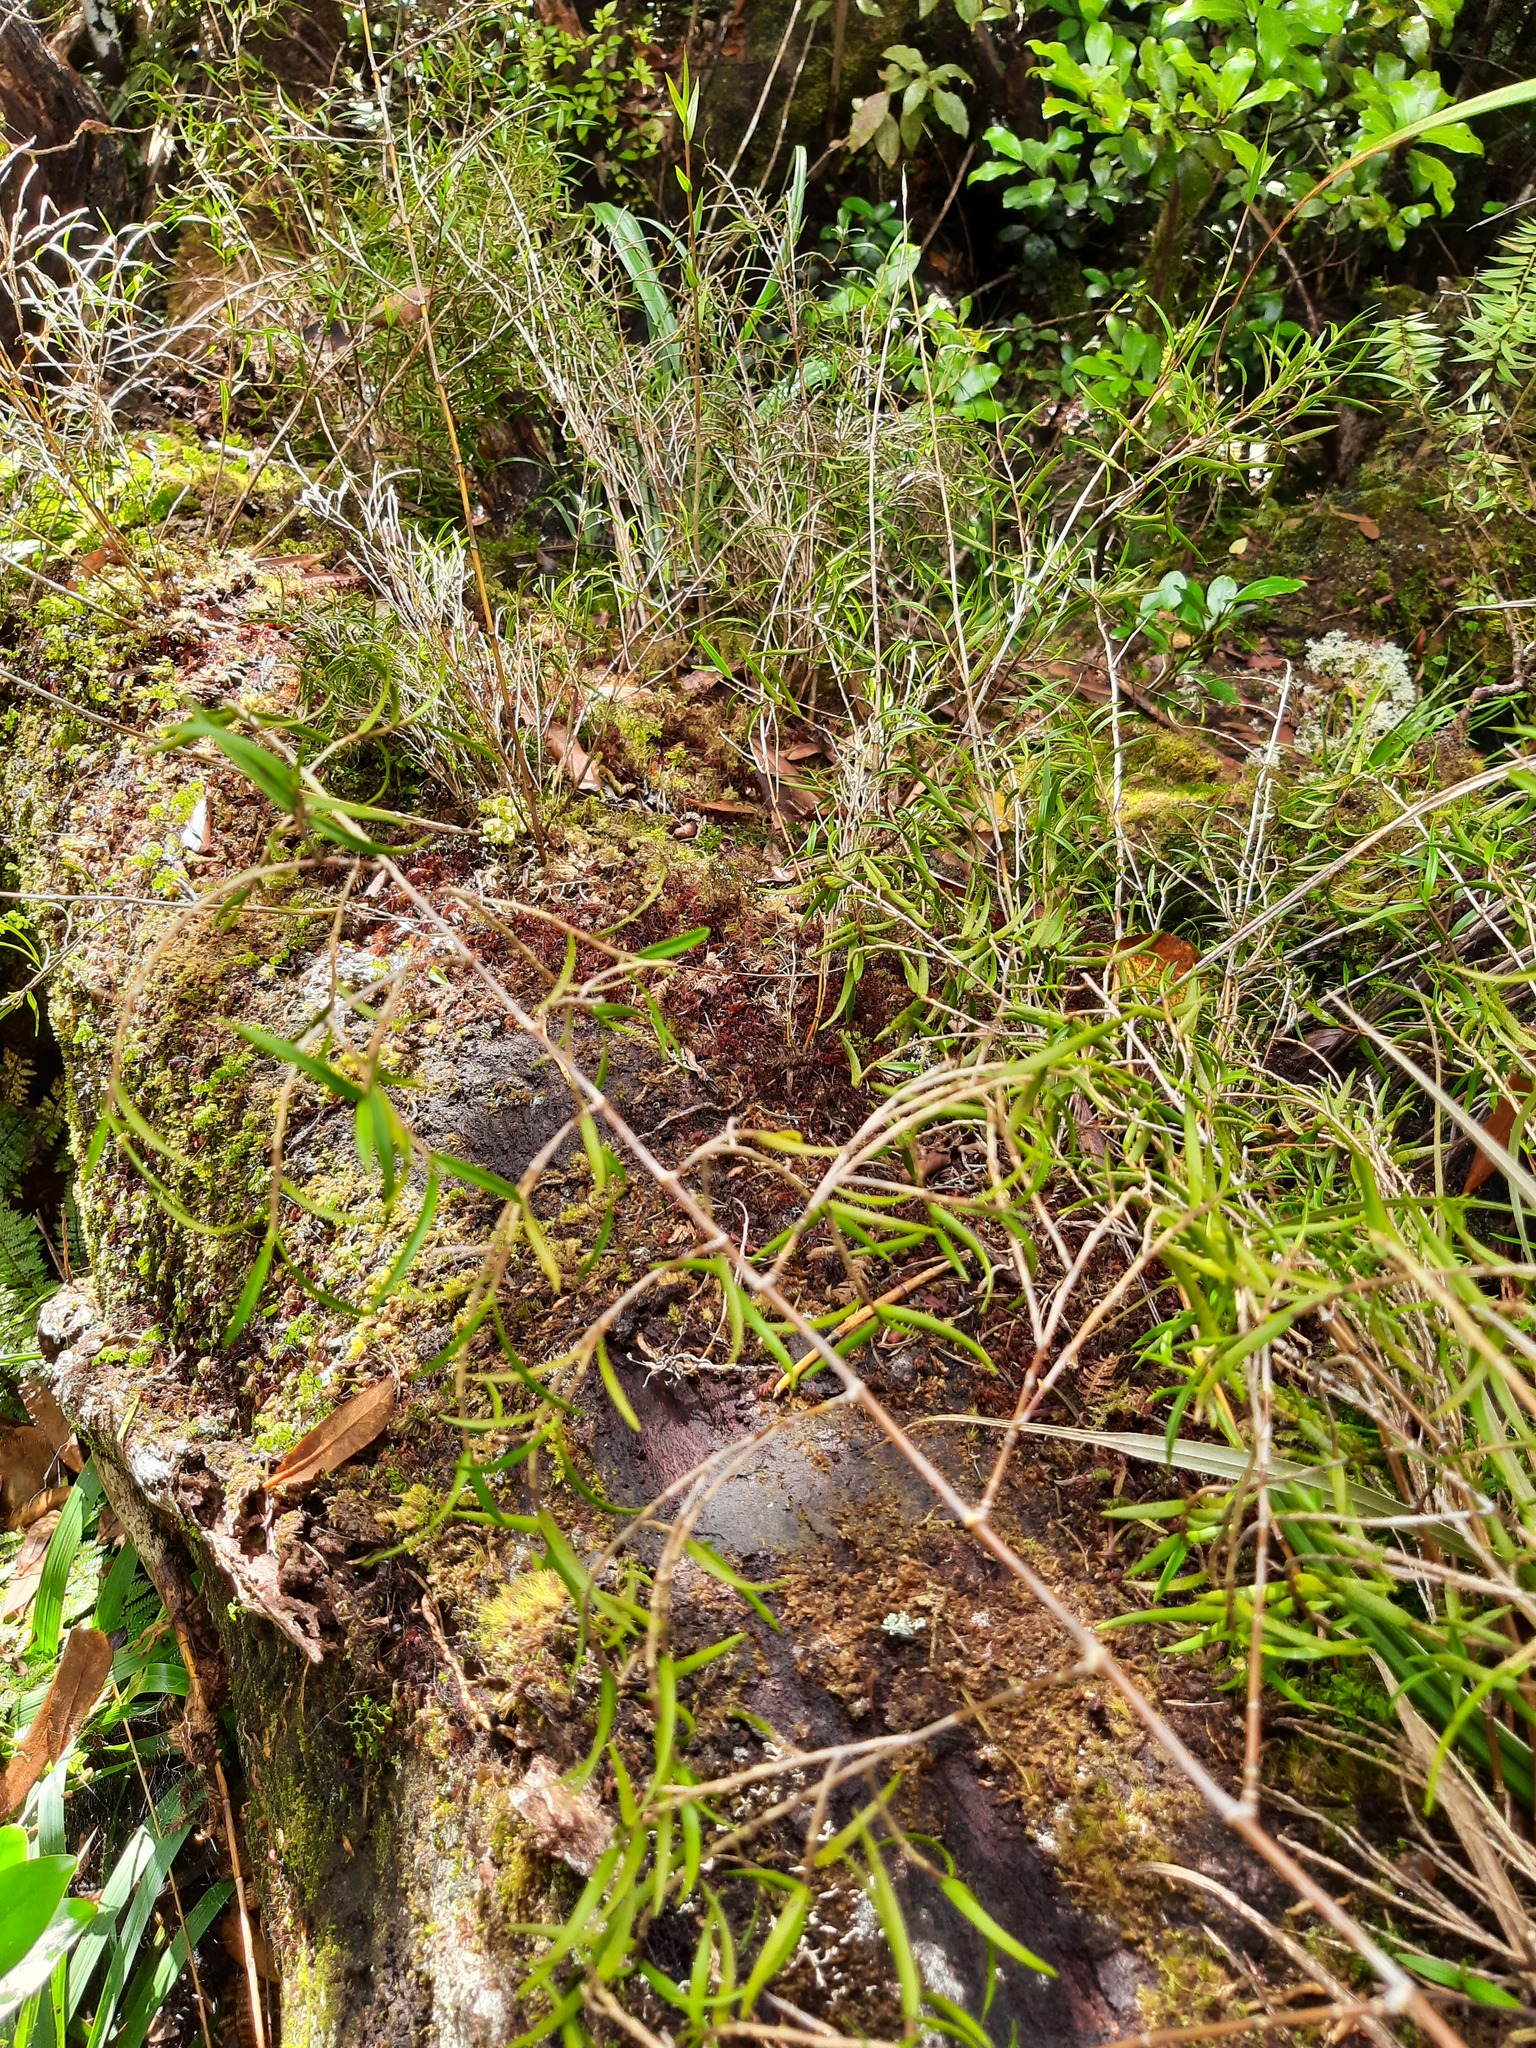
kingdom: Plantae
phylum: Tracheophyta
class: Liliopsida
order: Asparagales
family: Orchidaceae
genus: Dendrobium
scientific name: Dendrobium cunninghamii
